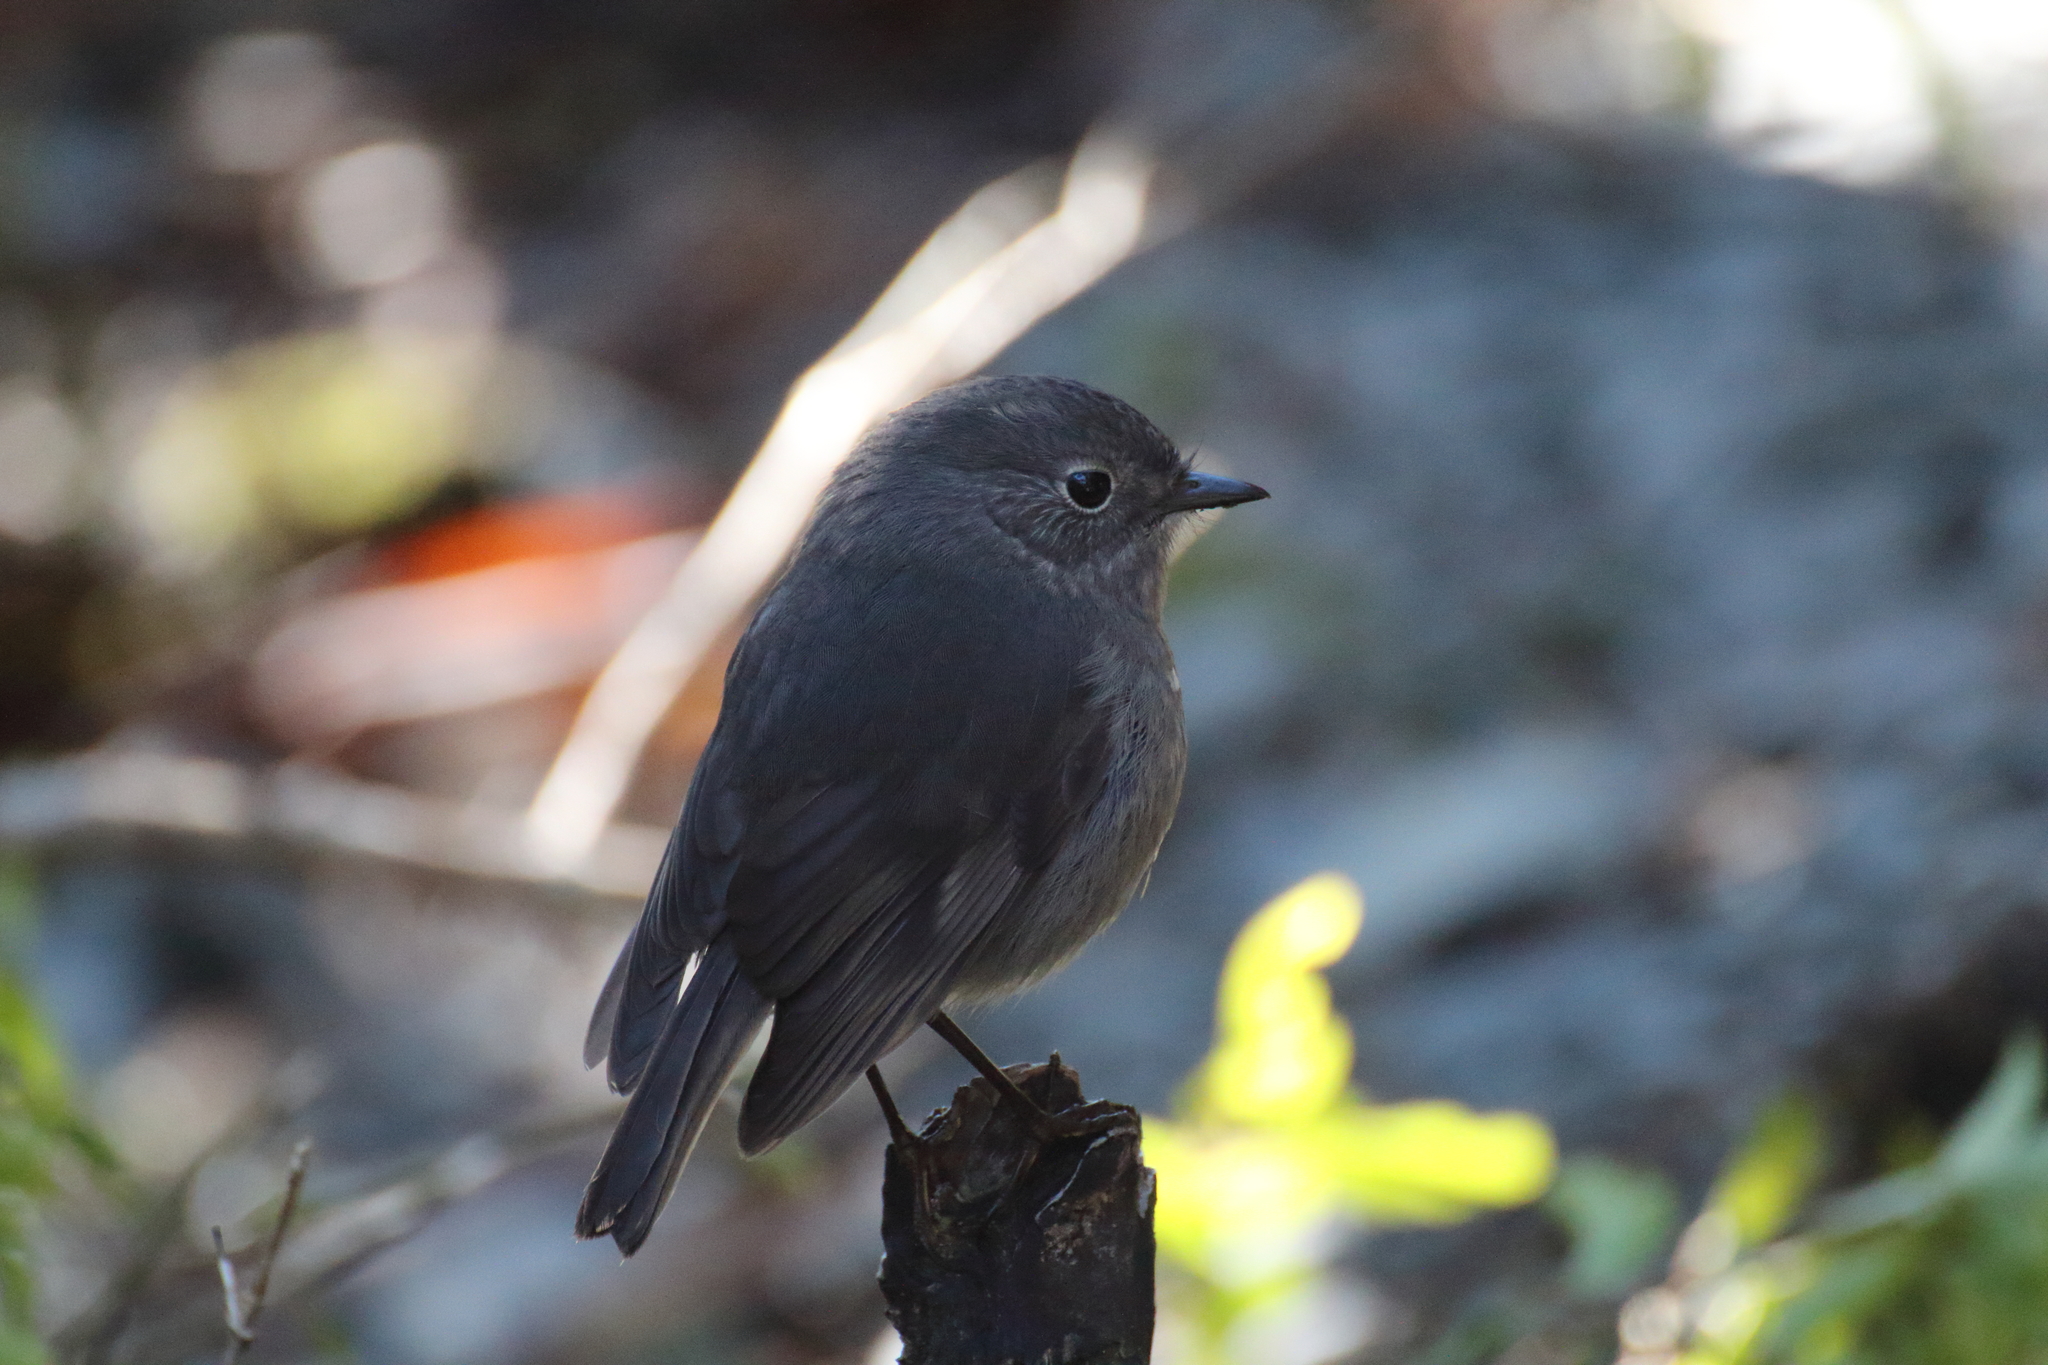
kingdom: Animalia
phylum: Chordata
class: Aves
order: Passeriformes
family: Petroicidae
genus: Petroica
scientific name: Petroica australis
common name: New zealand robin
